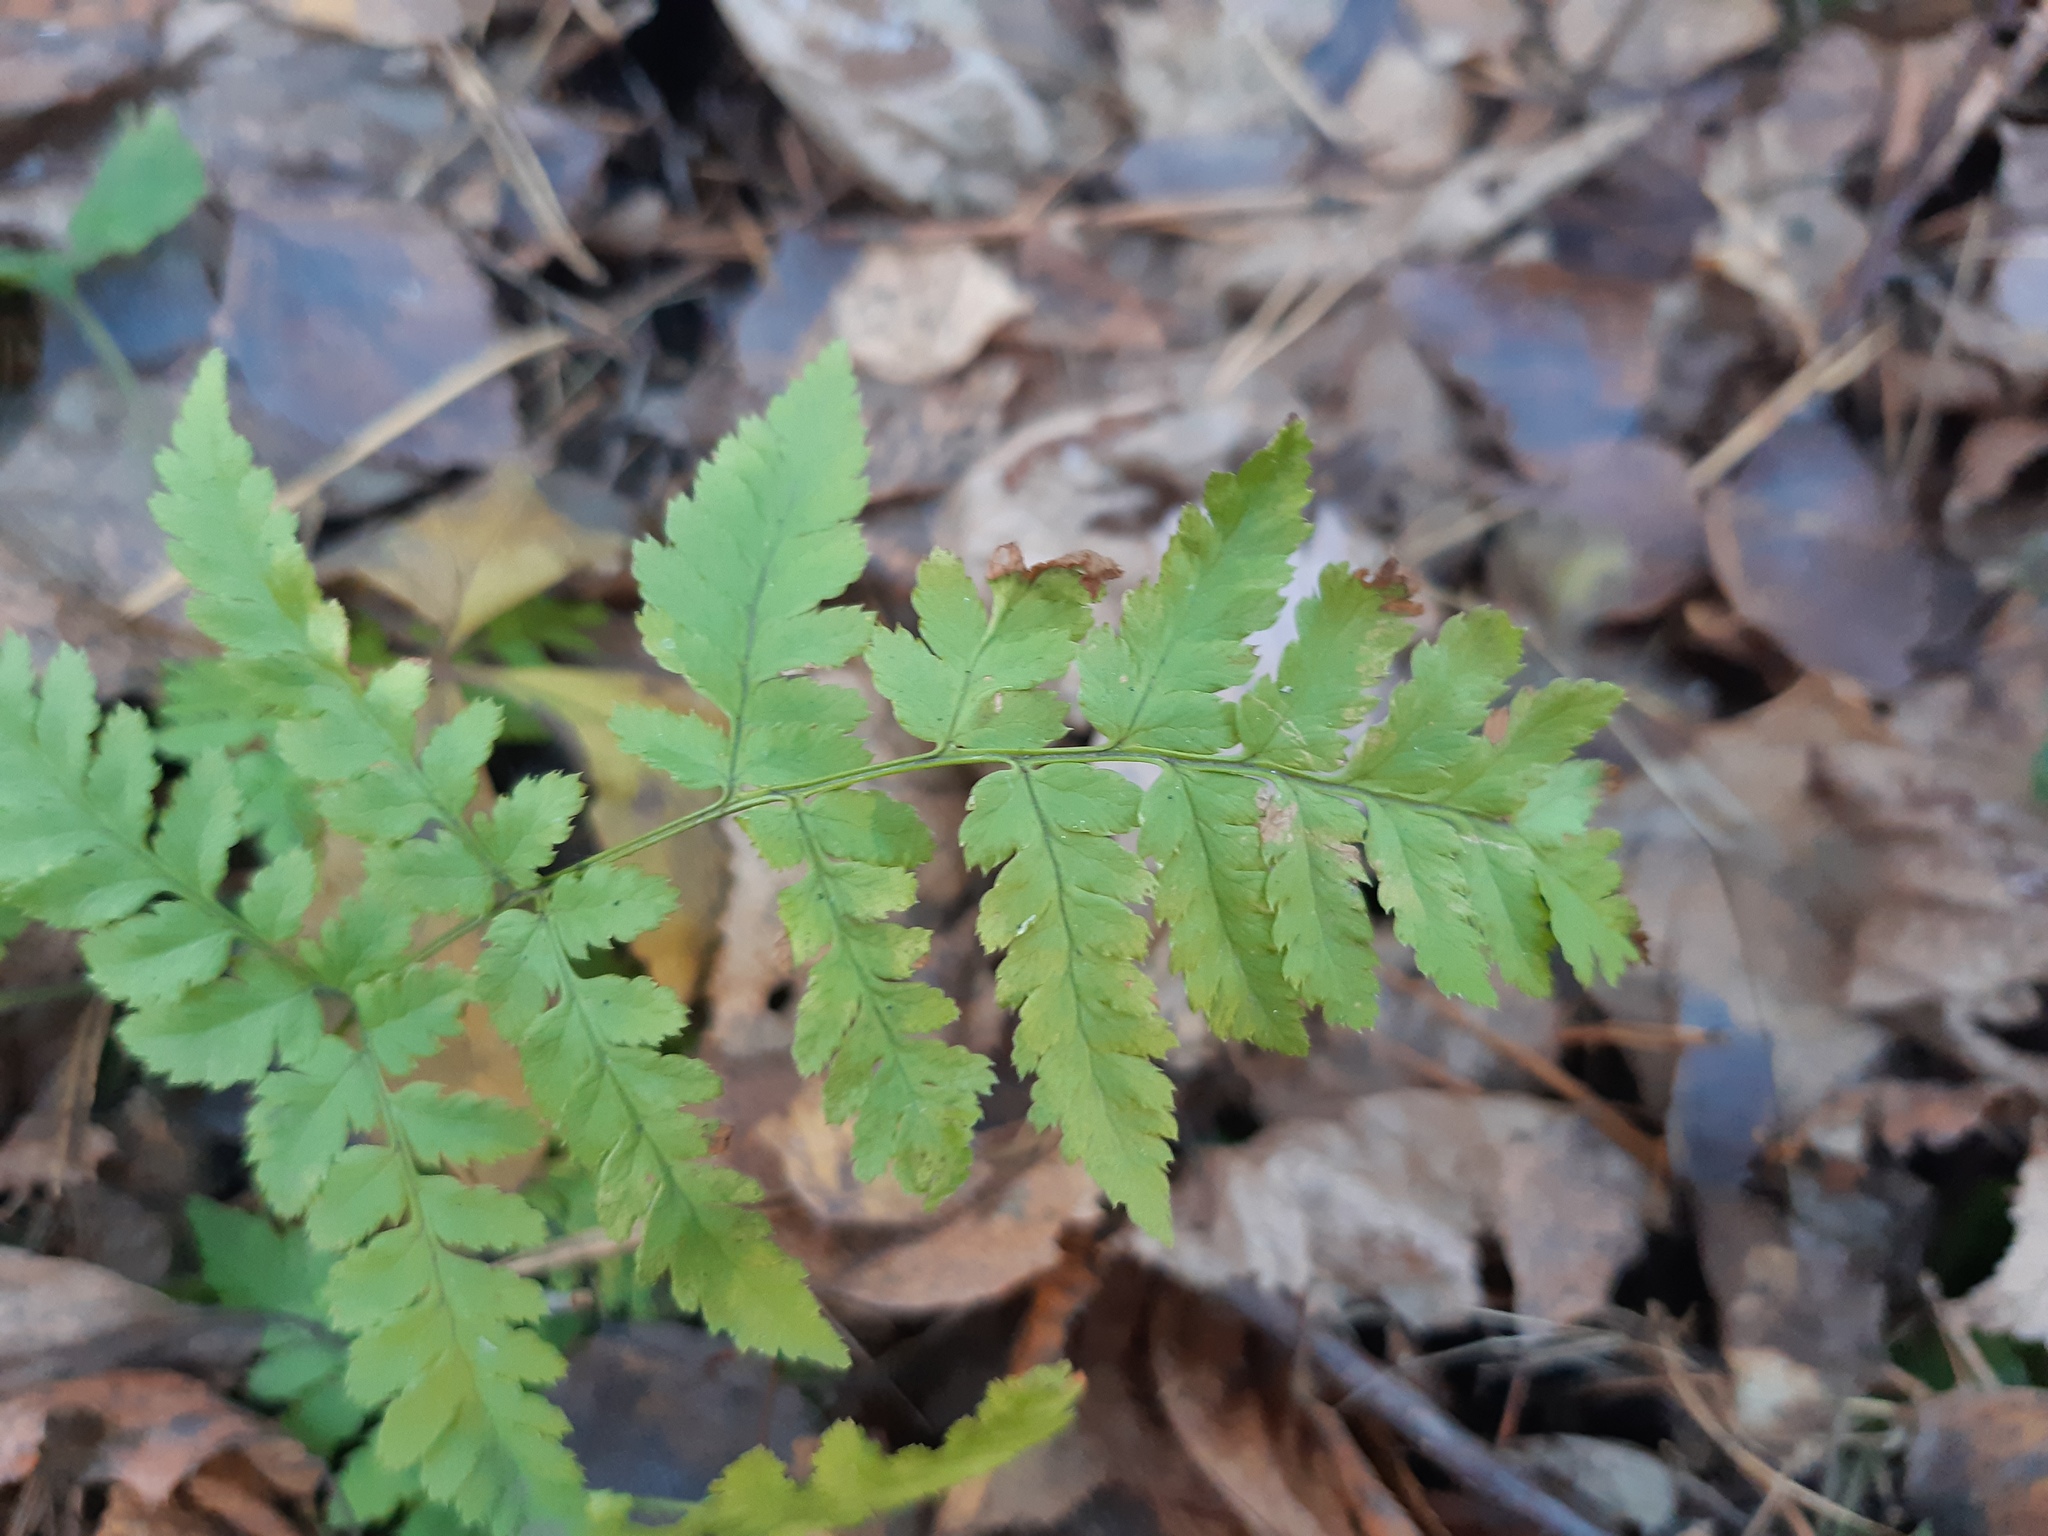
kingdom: Plantae
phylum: Tracheophyta
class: Polypodiopsida
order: Polypodiales
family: Dryopteridaceae
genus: Dryopteris
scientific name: Dryopteris carthusiana
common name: Narrow buckler-fern
